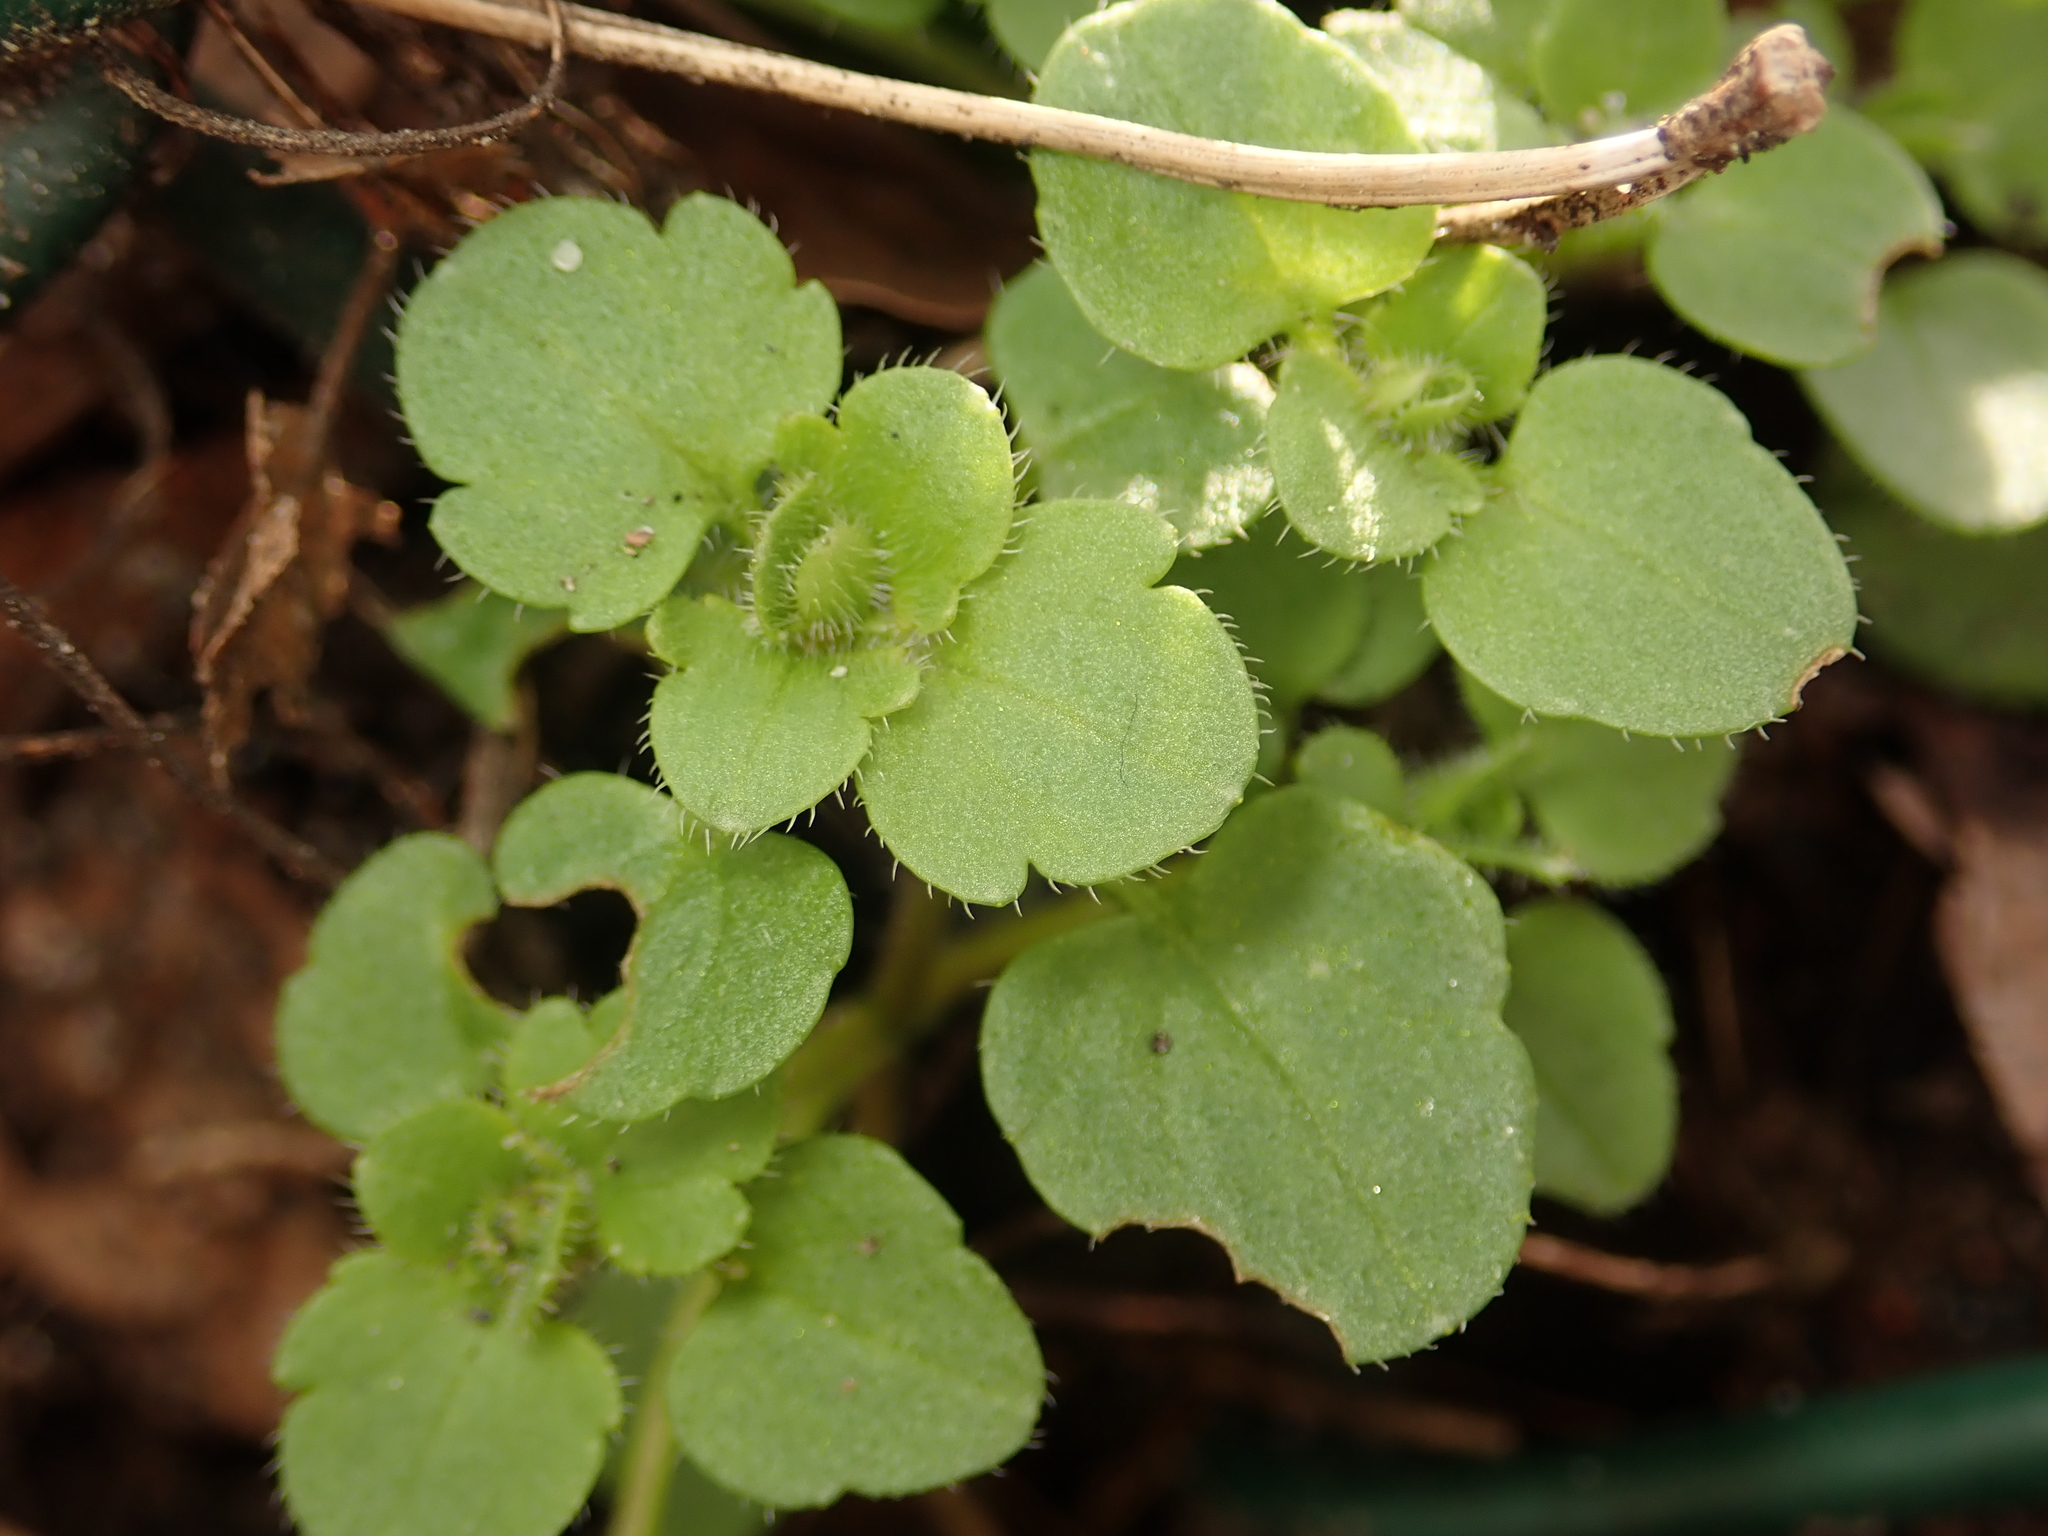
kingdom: Plantae
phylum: Tracheophyta
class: Magnoliopsida
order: Lamiales
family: Plantaginaceae
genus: Veronica
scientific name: Veronica hederifolia
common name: Ivy-leaved speedwell
